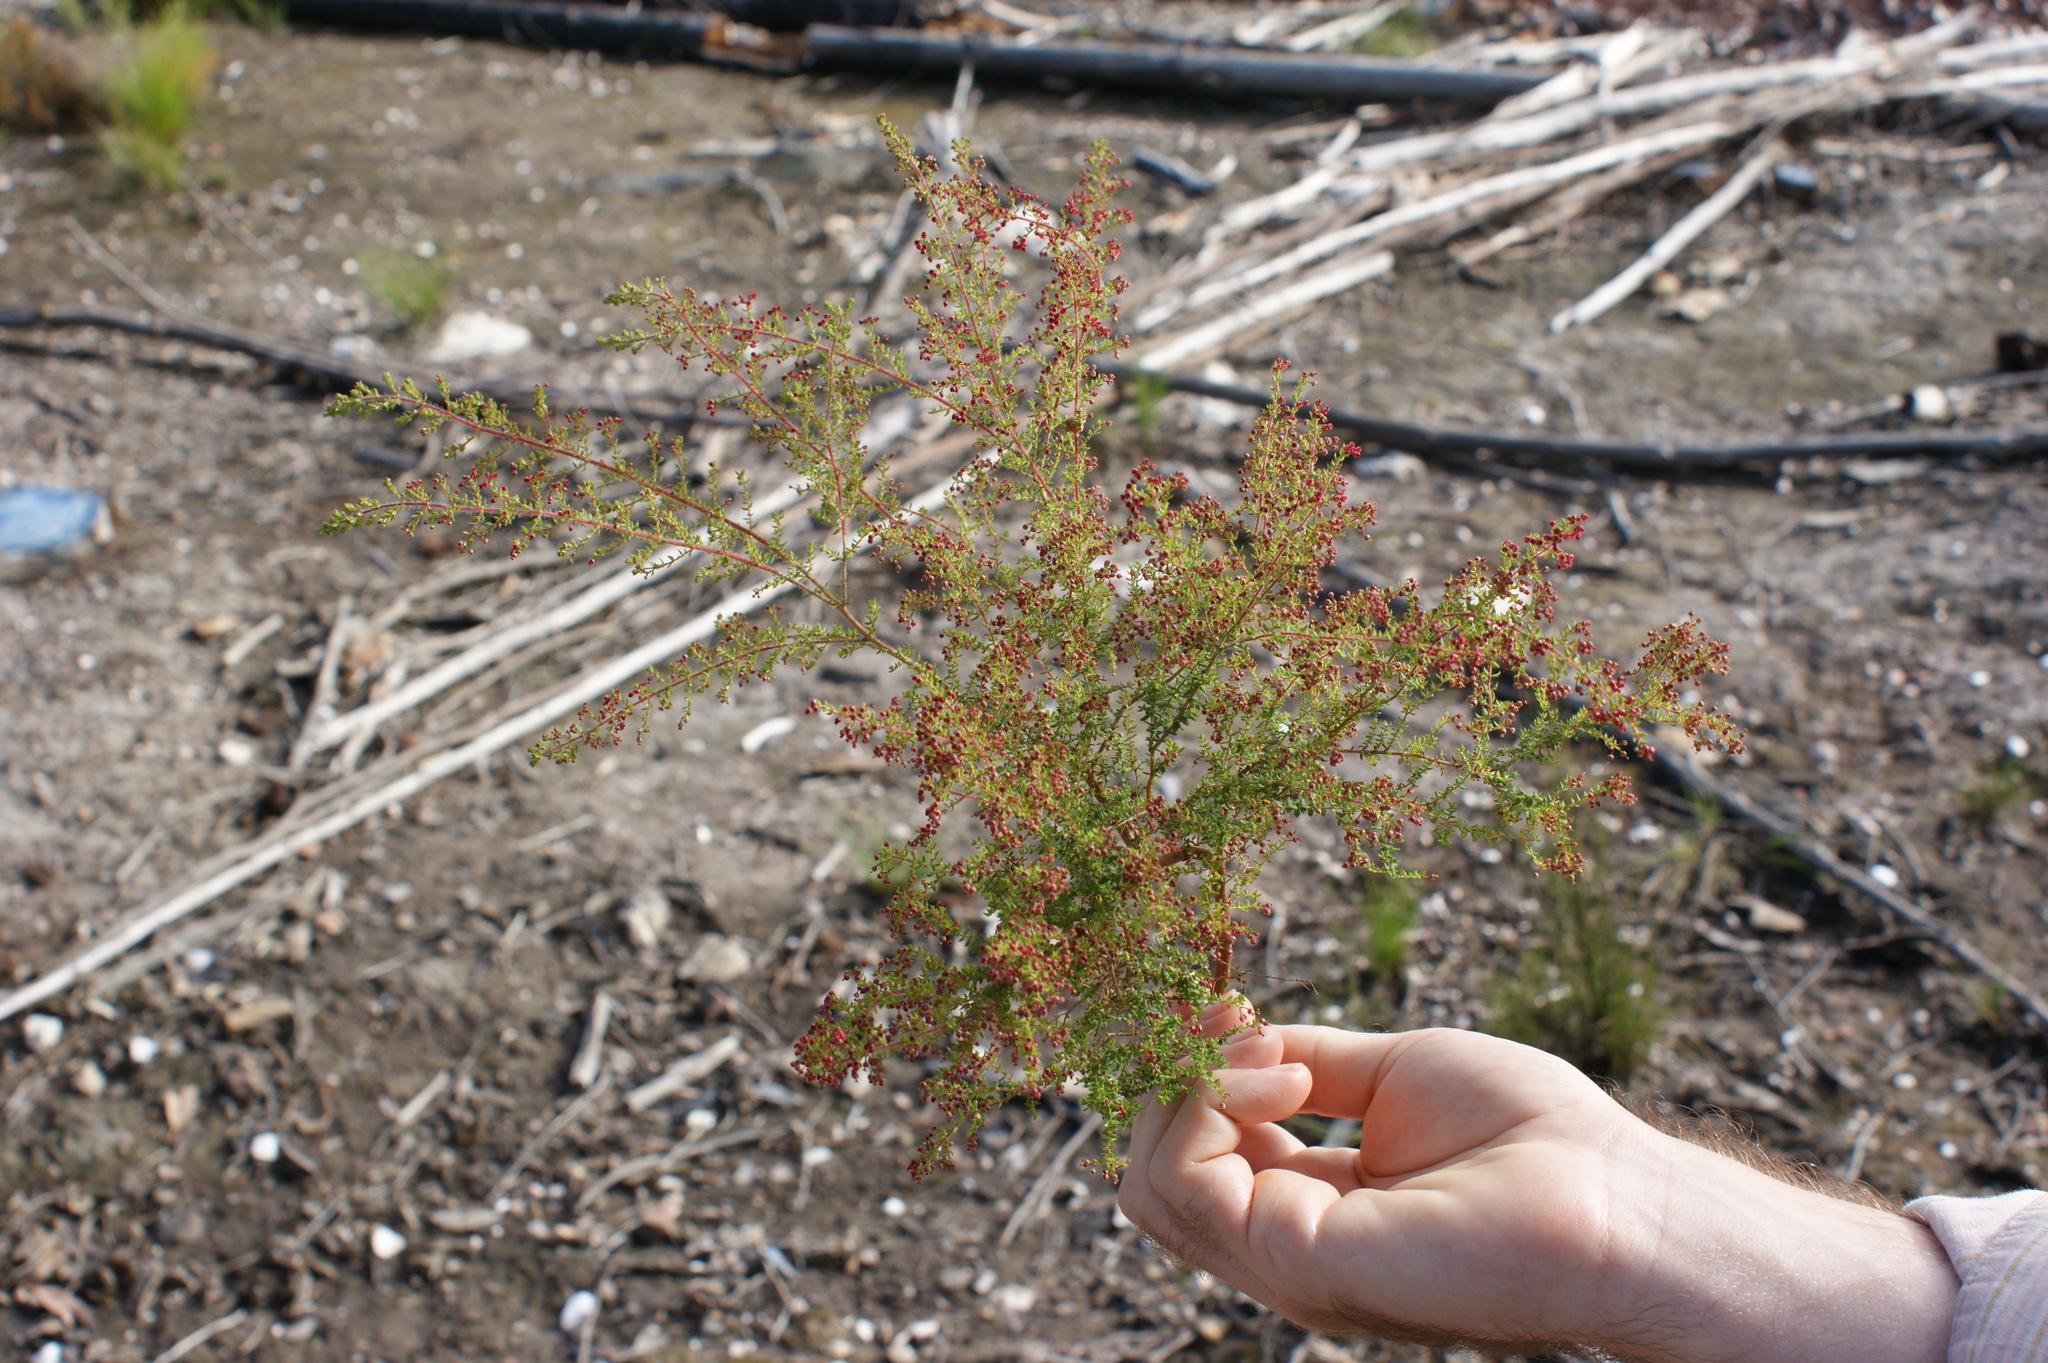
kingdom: Plantae
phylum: Tracheophyta
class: Magnoliopsida
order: Ericales
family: Ericaceae
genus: Erica
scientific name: Erica madida
